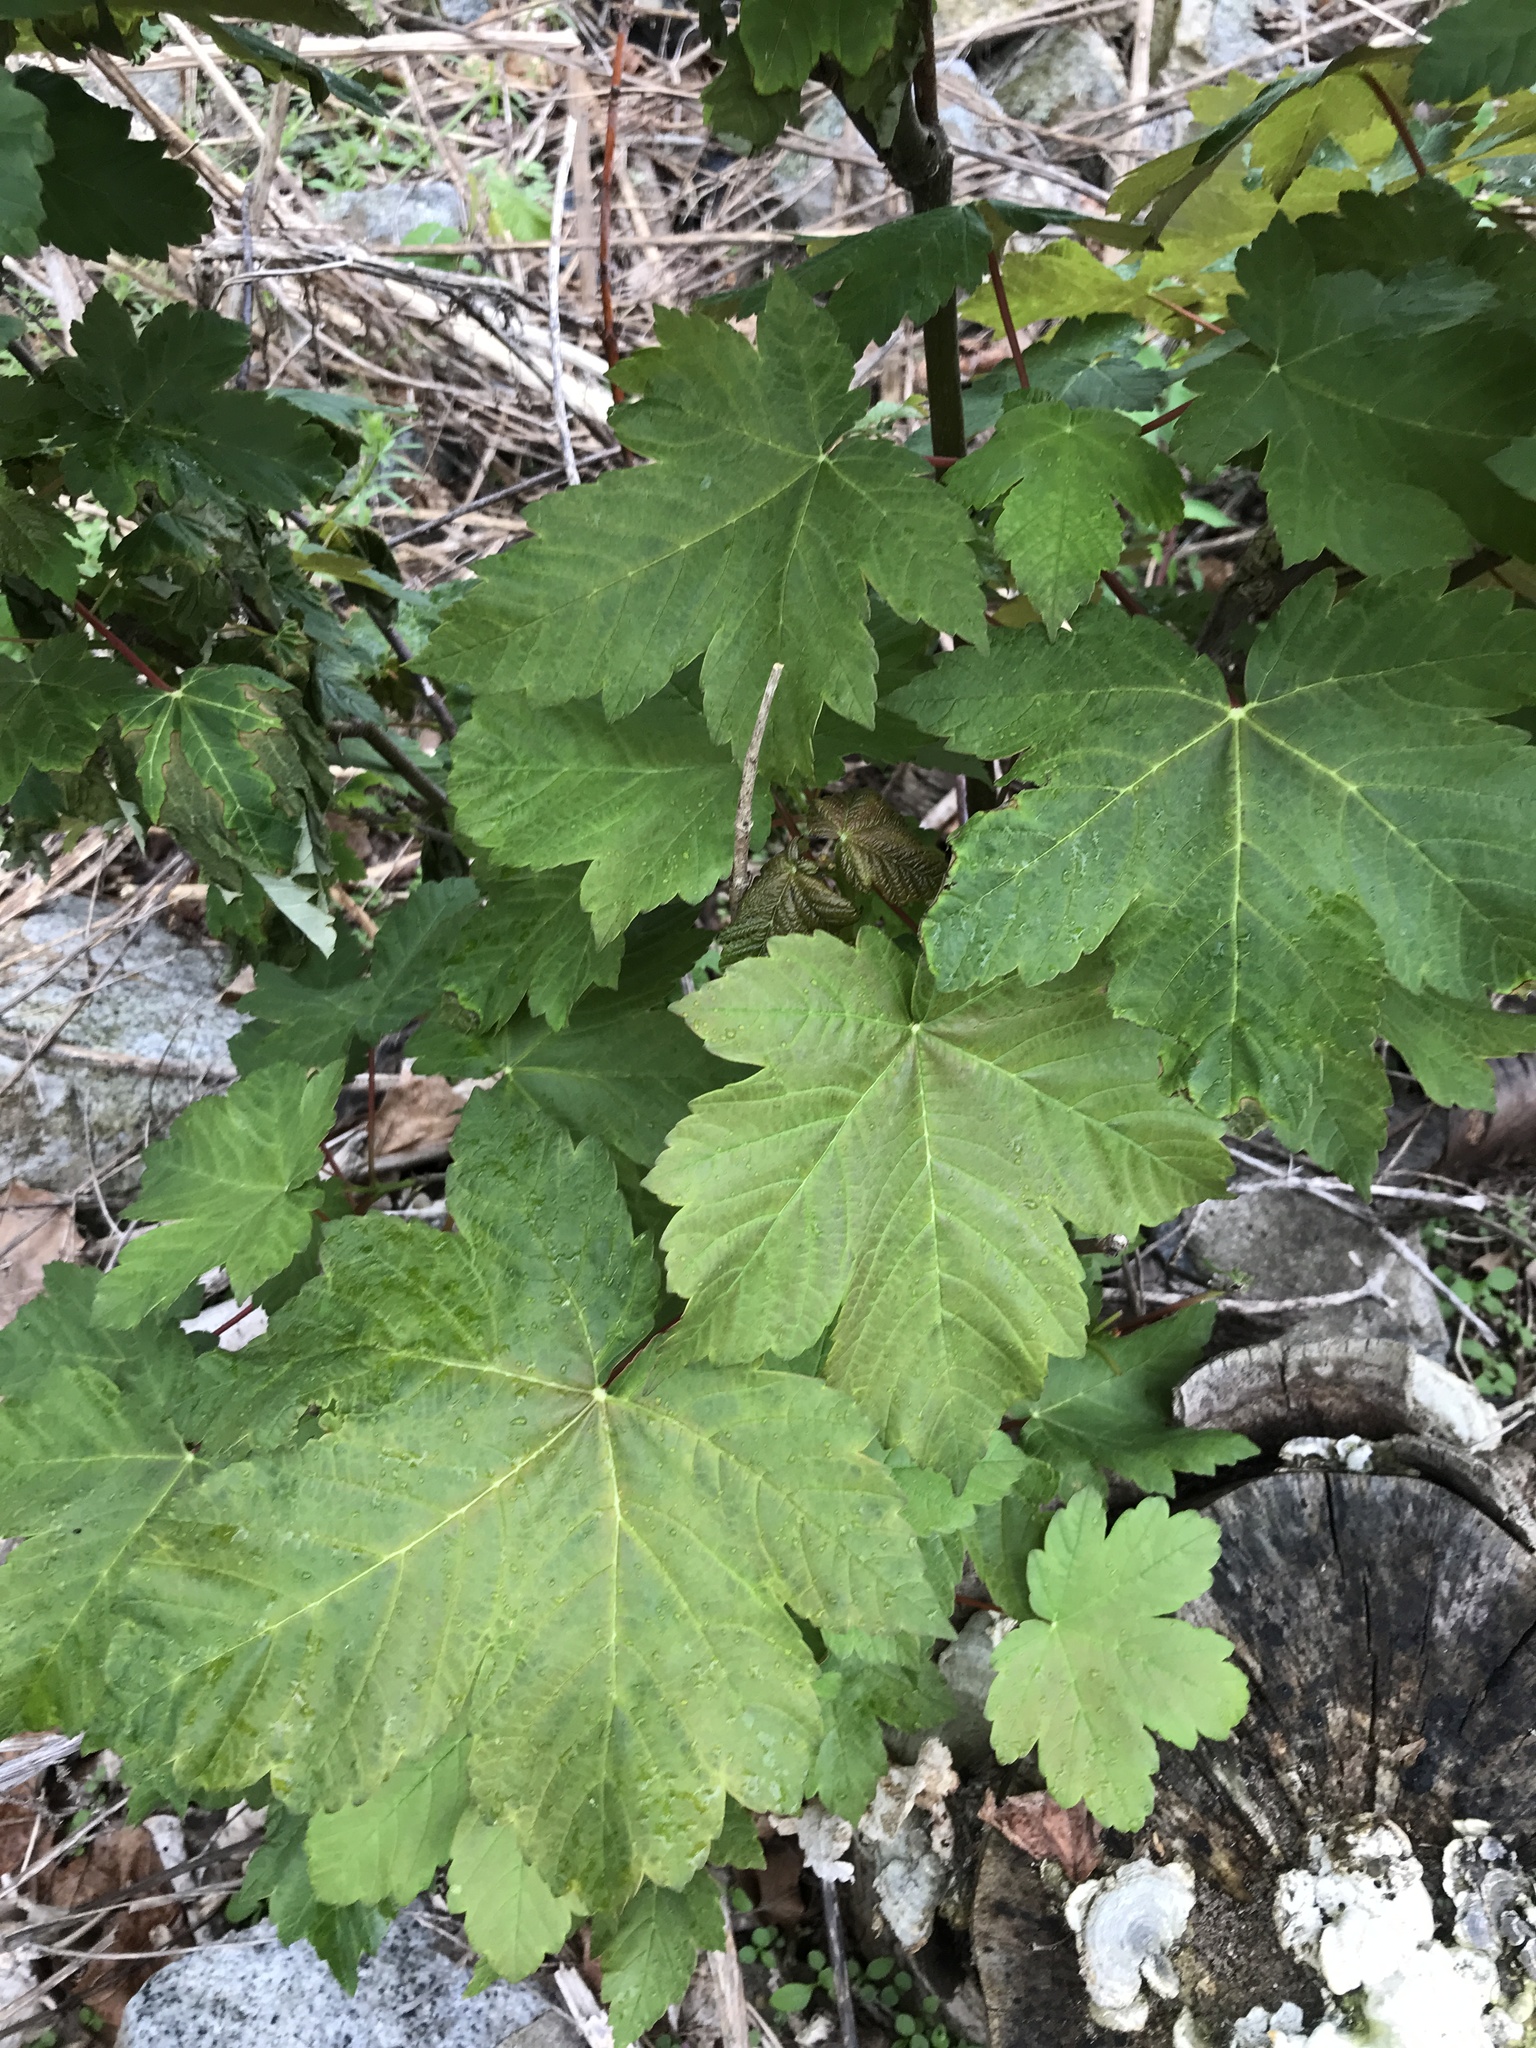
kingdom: Plantae
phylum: Tracheophyta
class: Magnoliopsida
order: Sapindales
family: Sapindaceae
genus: Acer
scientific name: Acer pseudoplatanus
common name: Sycamore
